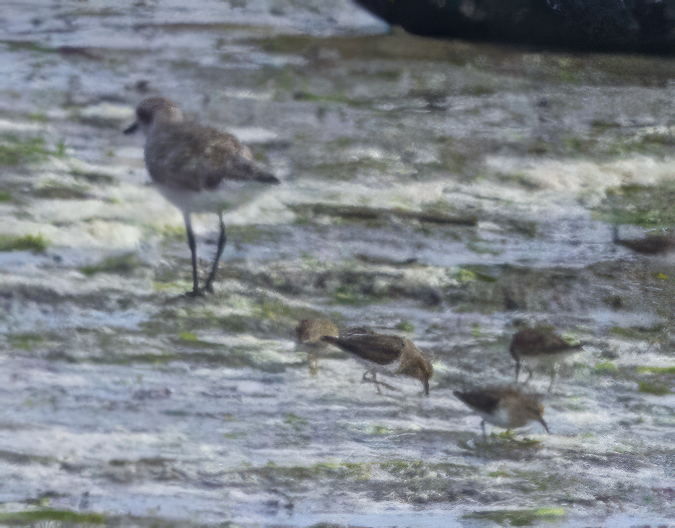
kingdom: Animalia
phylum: Chordata
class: Aves
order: Charadriiformes
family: Scolopacidae
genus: Calidris
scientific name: Calidris minutilla
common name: Least sandpiper
